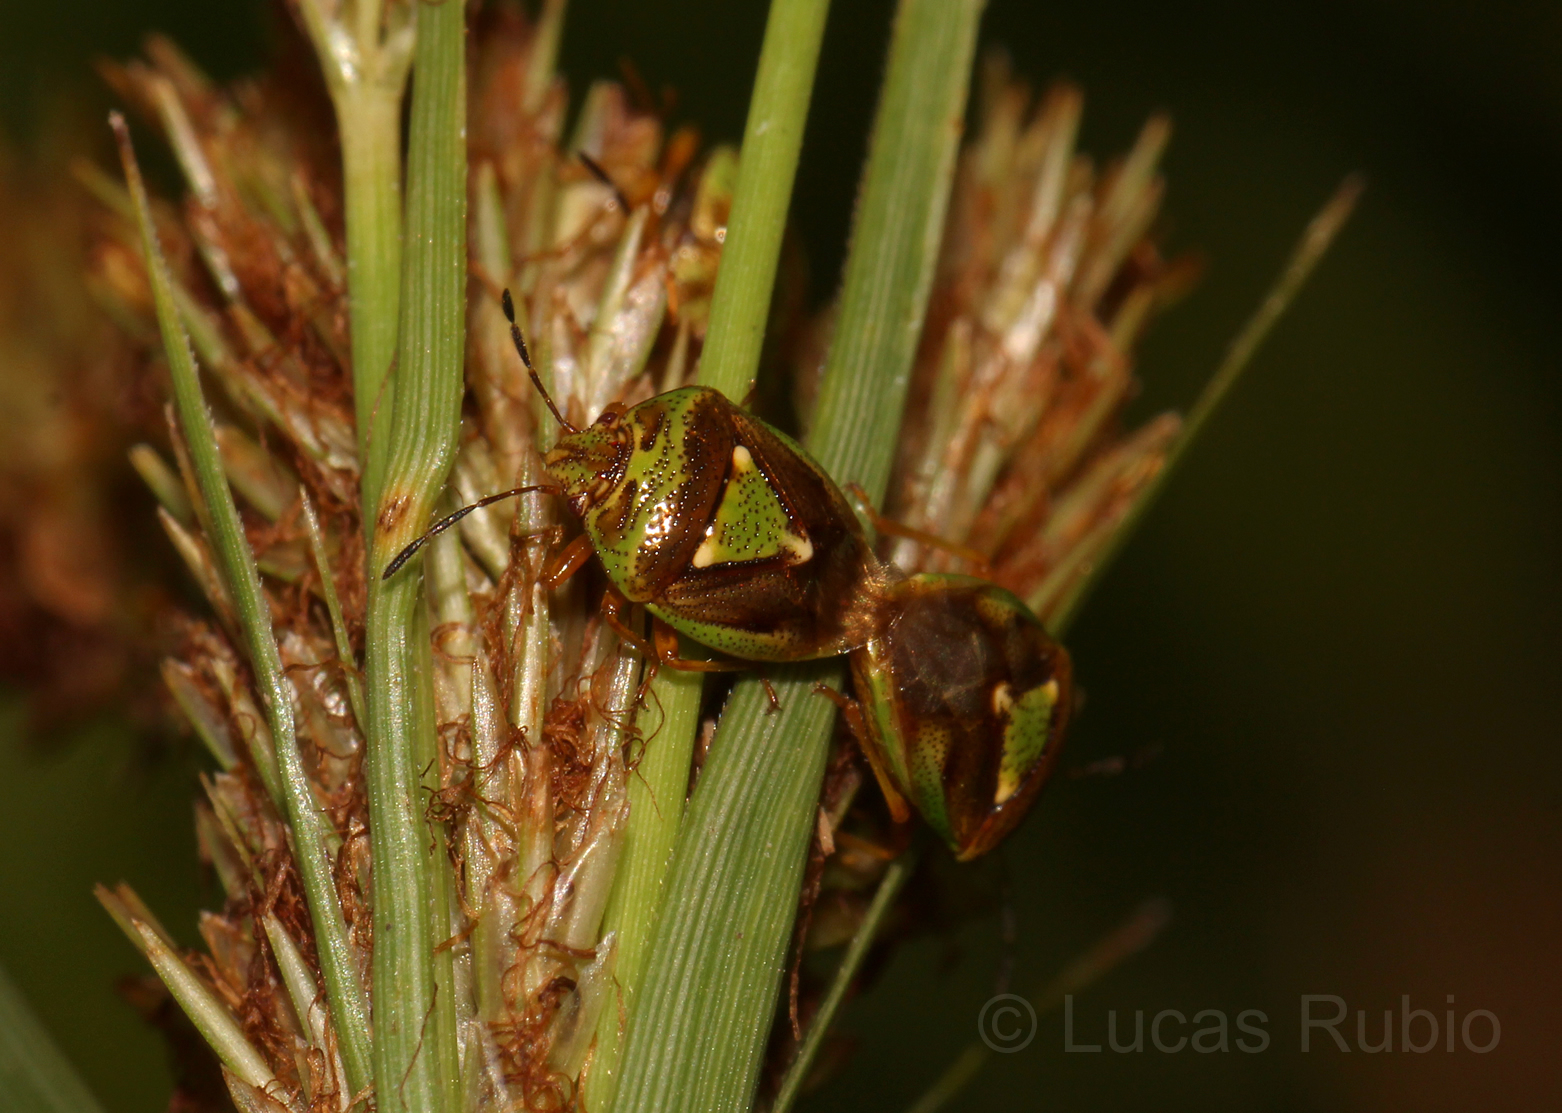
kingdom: Animalia
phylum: Arthropoda
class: Insecta
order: Hemiptera
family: Acanthosomatidae
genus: Hellica
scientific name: Hellica nitida
